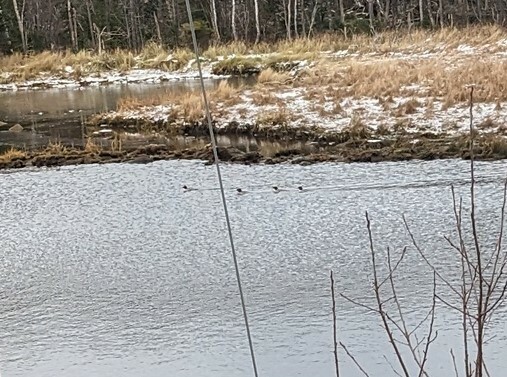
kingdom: Animalia
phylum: Chordata
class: Aves
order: Anseriformes
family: Anatidae
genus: Mergus
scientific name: Mergus merganser
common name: Common merganser
